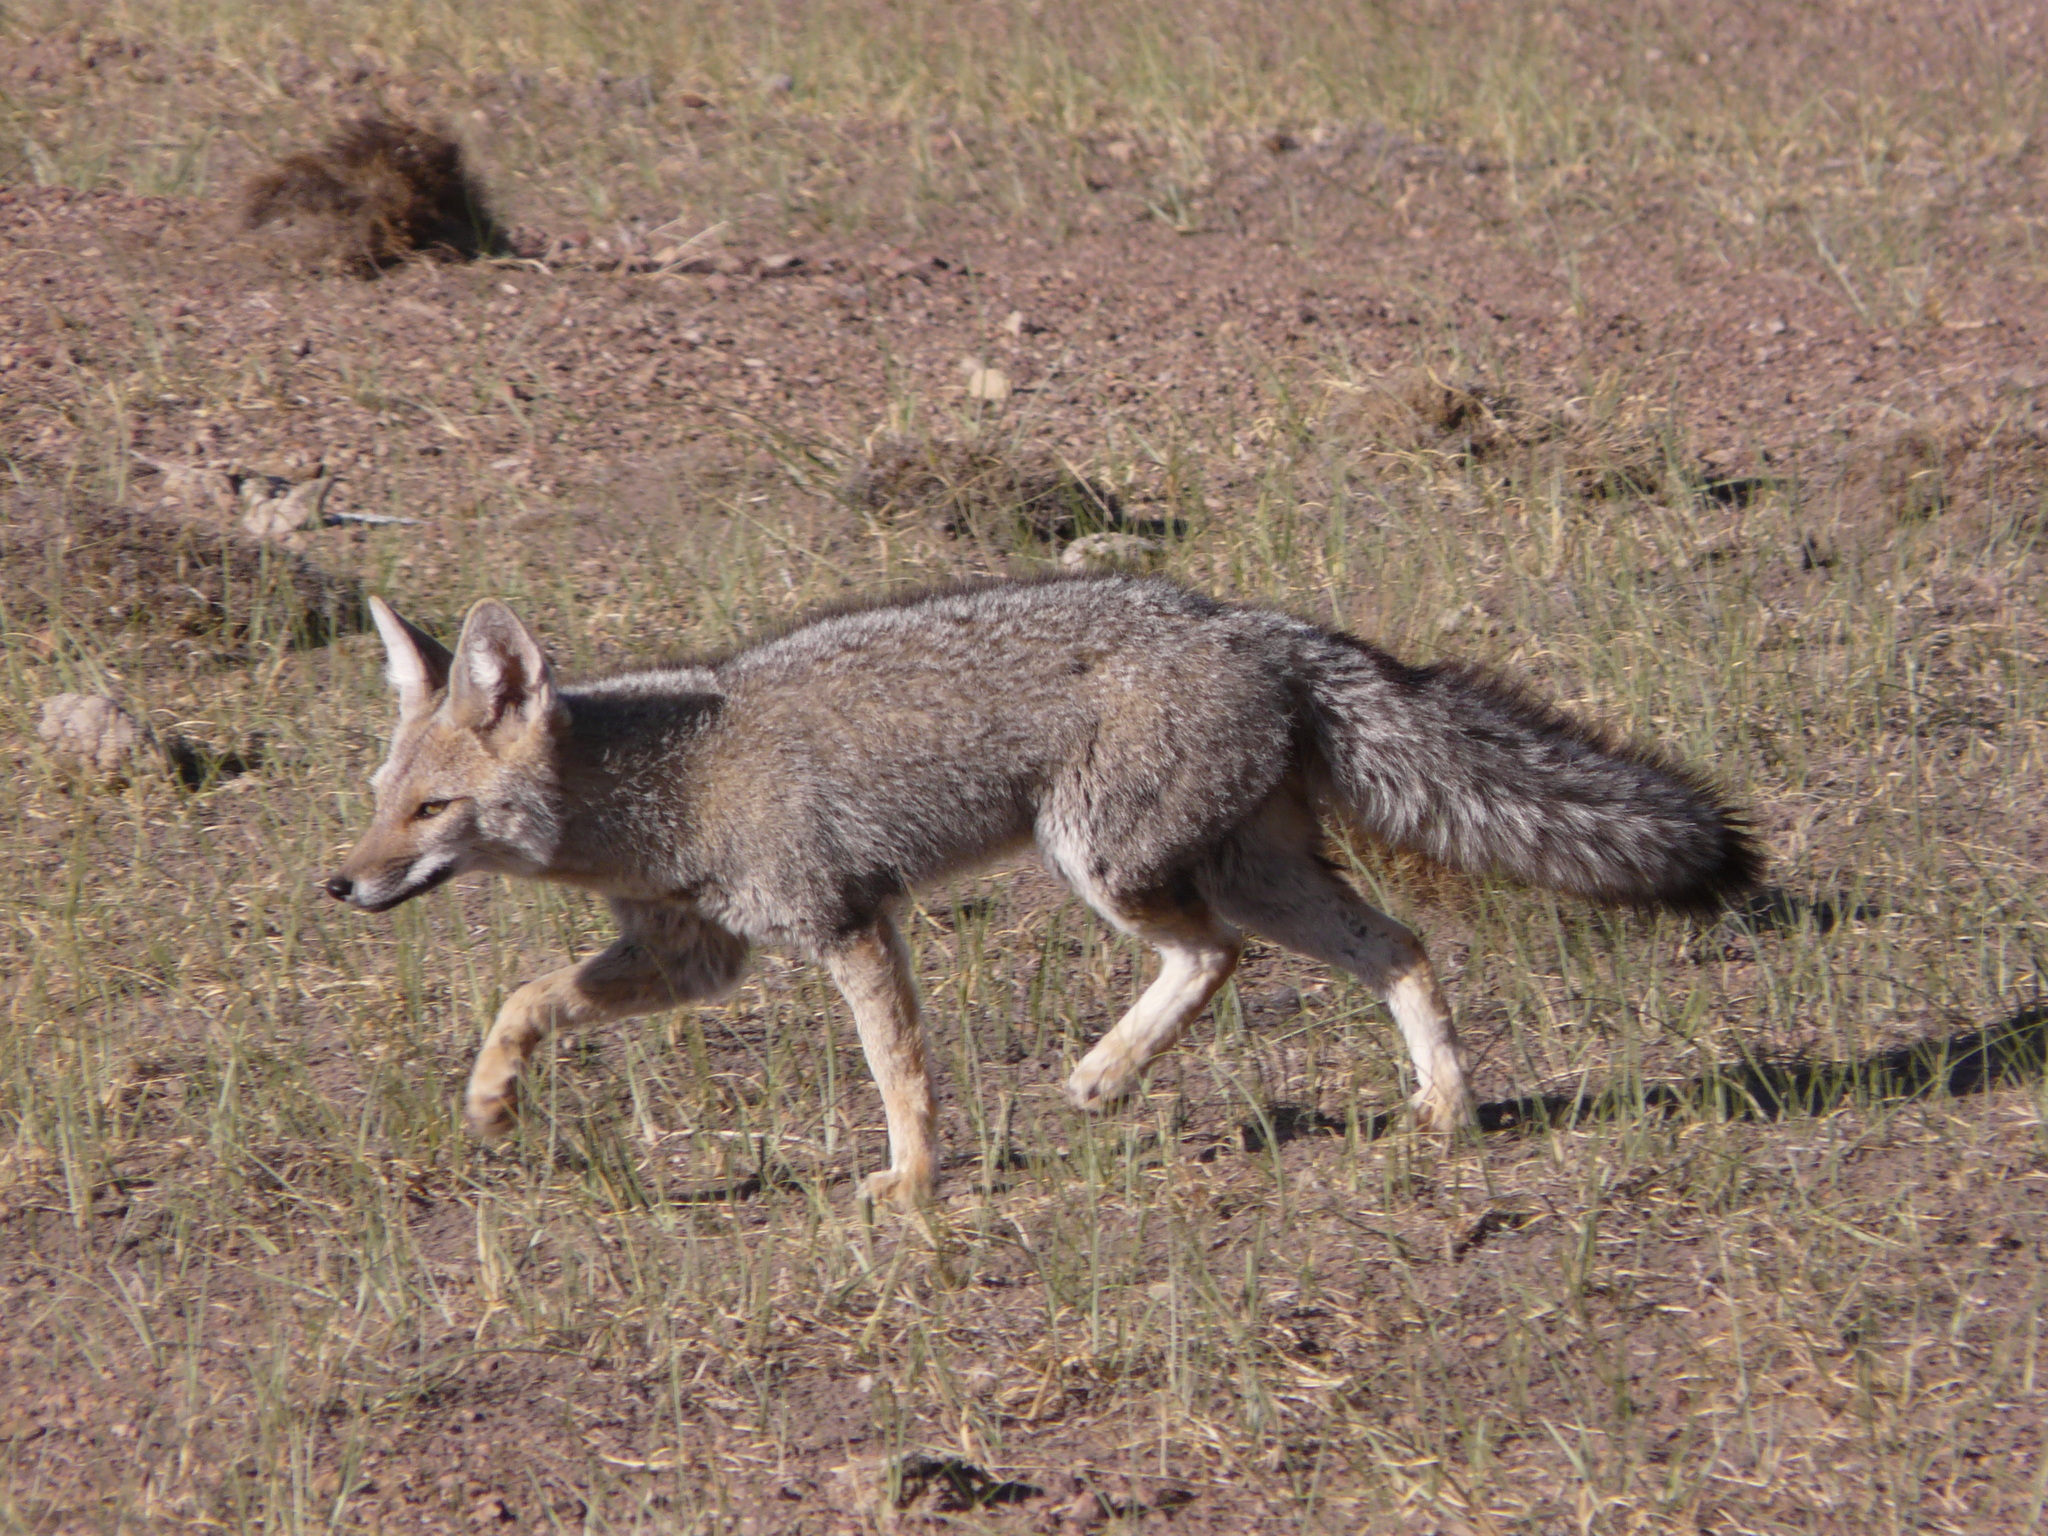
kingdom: Animalia
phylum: Chordata
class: Mammalia
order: Carnivora
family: Canidae
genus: Lycalopex
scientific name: Lycalopex gymnocercus
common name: Pampas fox
